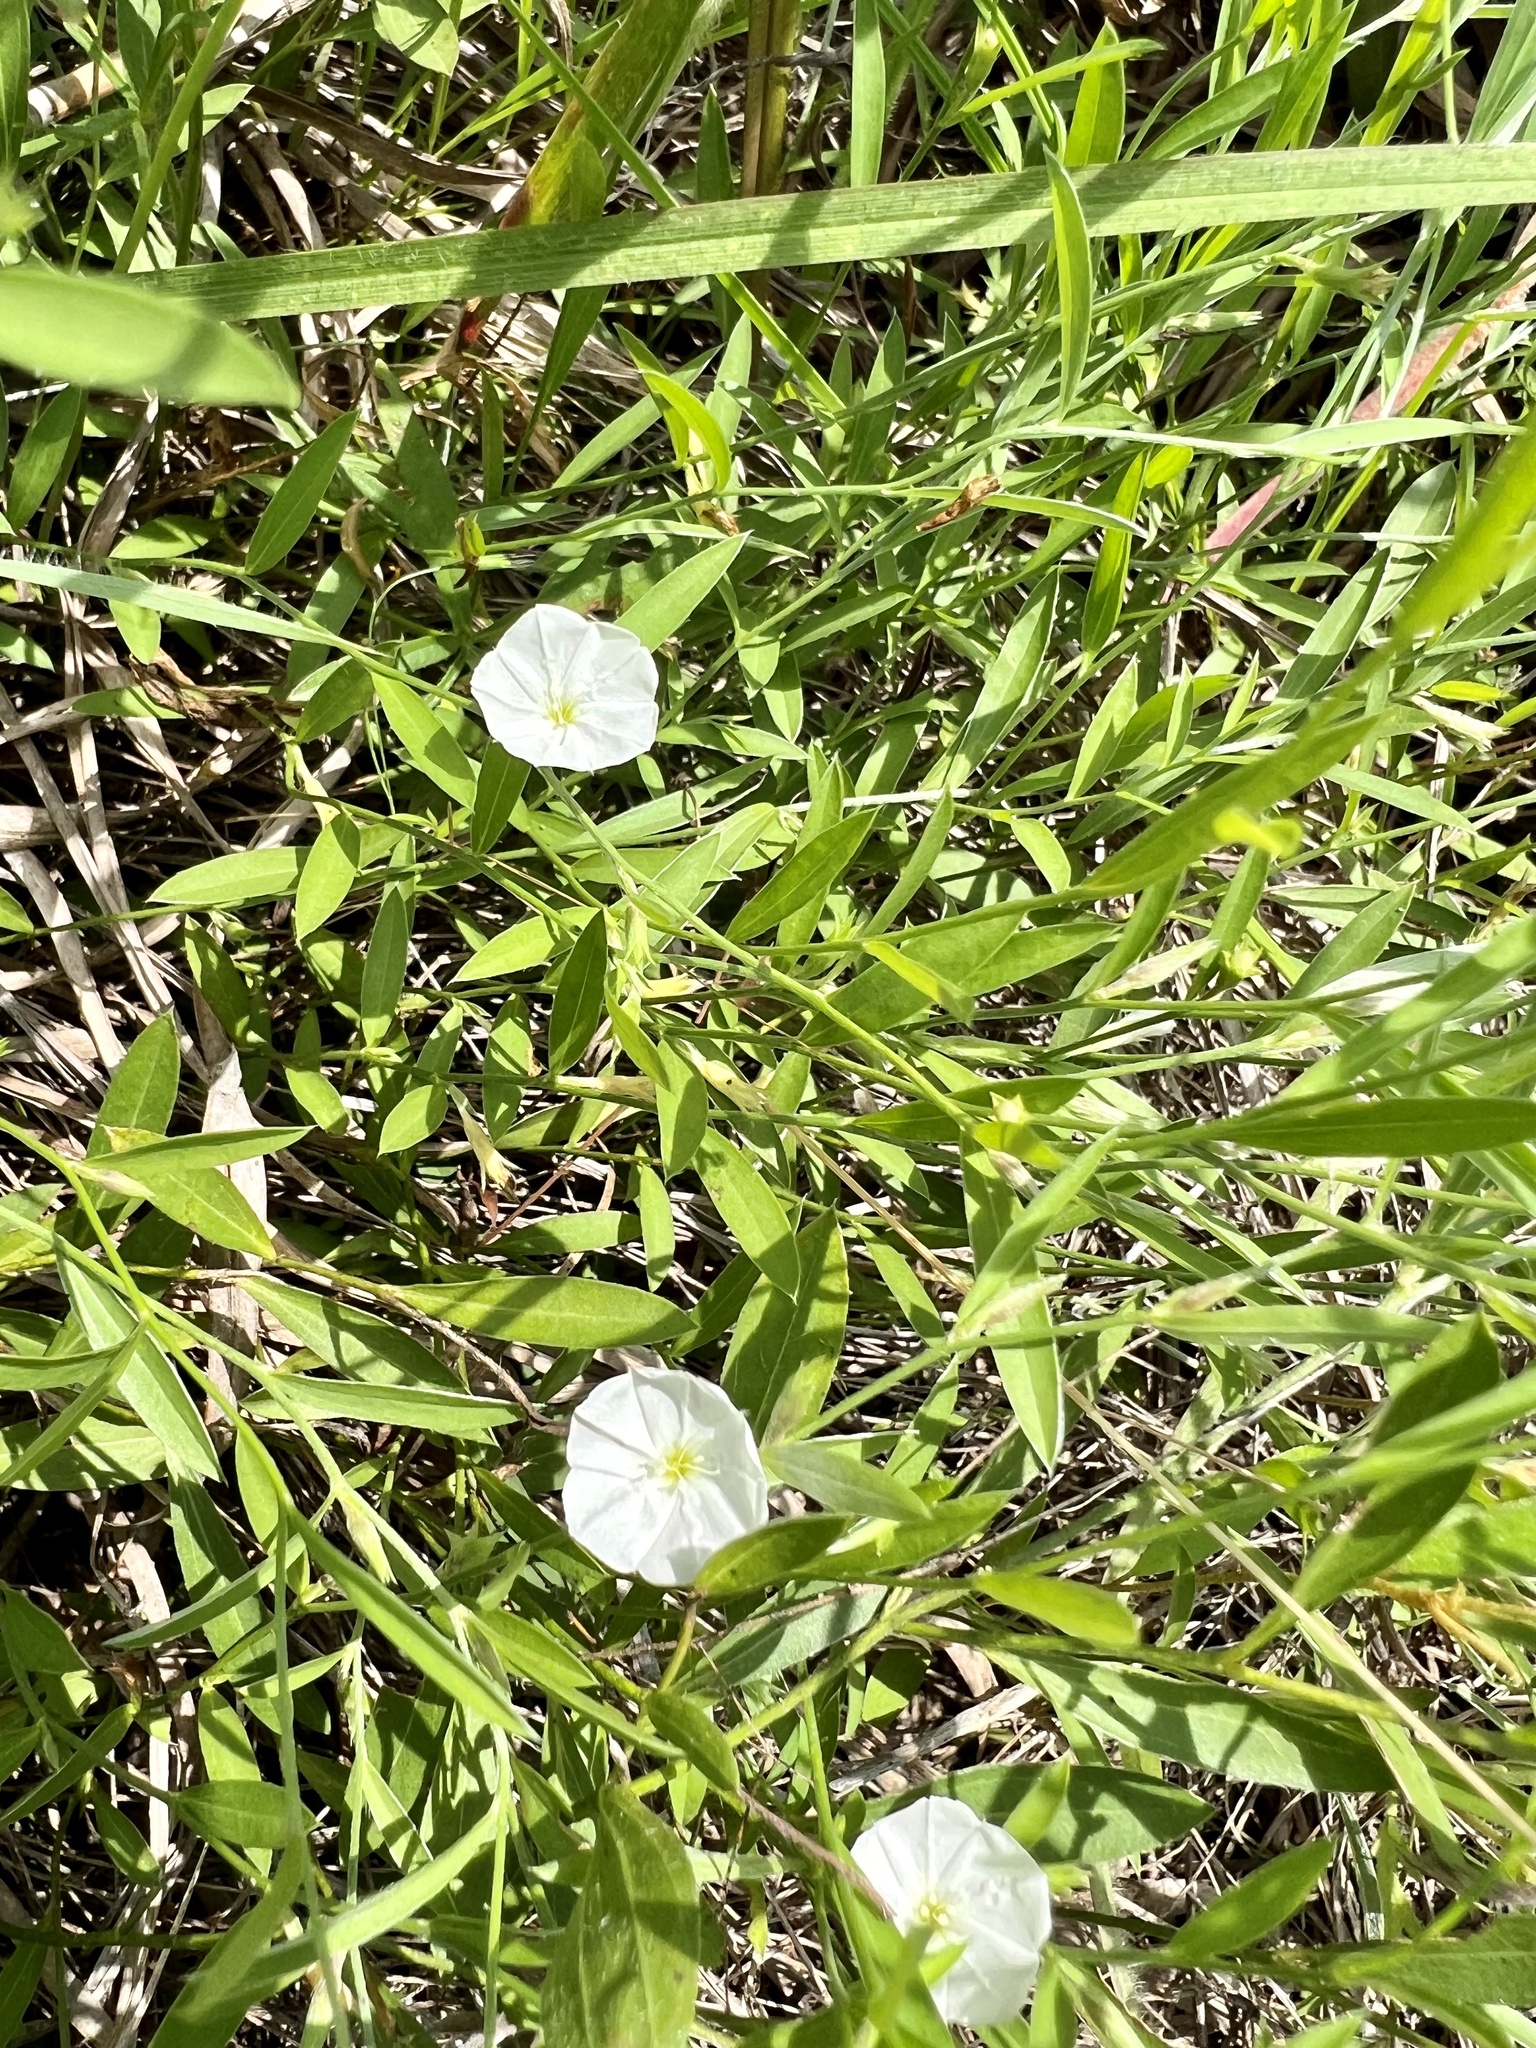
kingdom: Plantae
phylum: Tracheophyta
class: Magnoliopsida
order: Solanales
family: Convolvulaceae
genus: Evolvulus
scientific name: Evolvulus sericeus
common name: Blue dots
